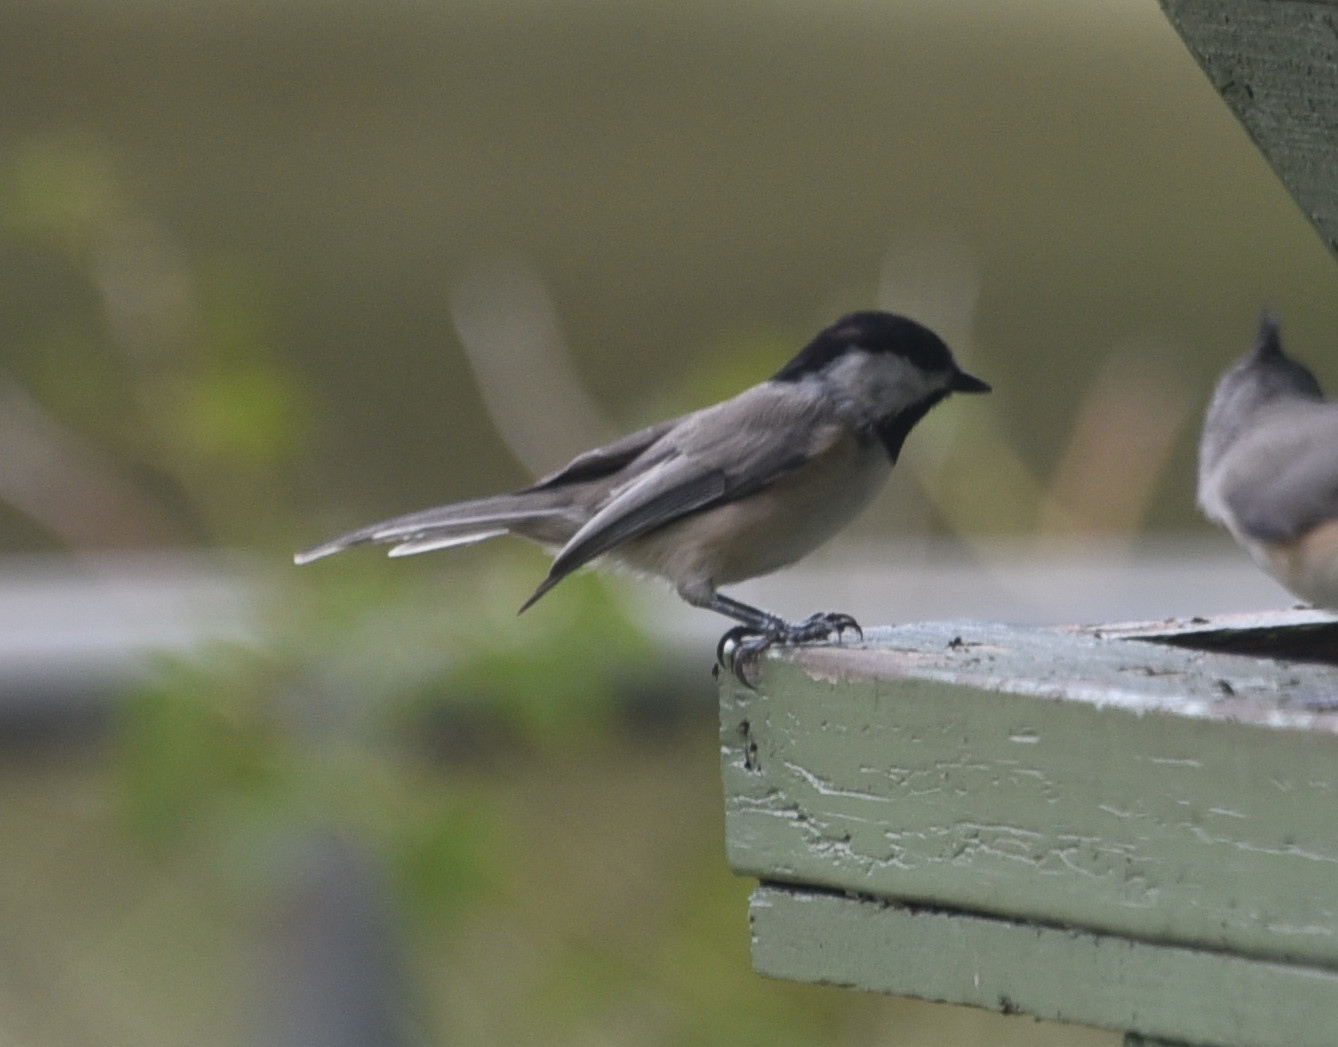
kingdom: Animalia
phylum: Chordata
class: Aves
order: Passeriformes
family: Paridae
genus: Poecile
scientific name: Poecile carolinensis
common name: Carolina chickadee
